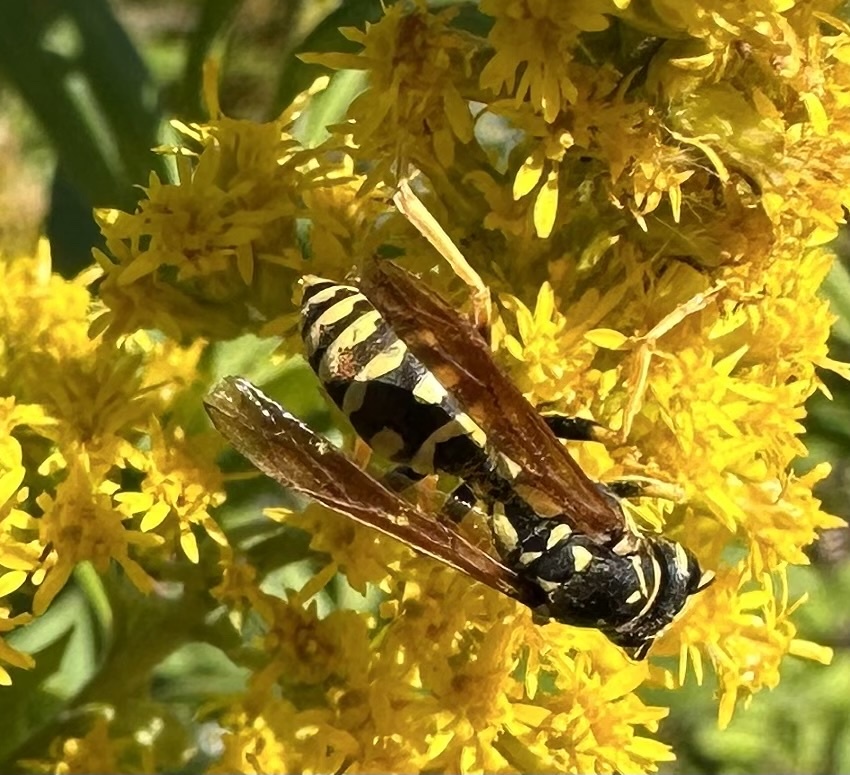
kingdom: Animalia
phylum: Arthropoda
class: Insecta
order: Hymenoptera
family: Eumenidae
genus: Polistes
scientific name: Polistes dominula
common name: Paper wasp
